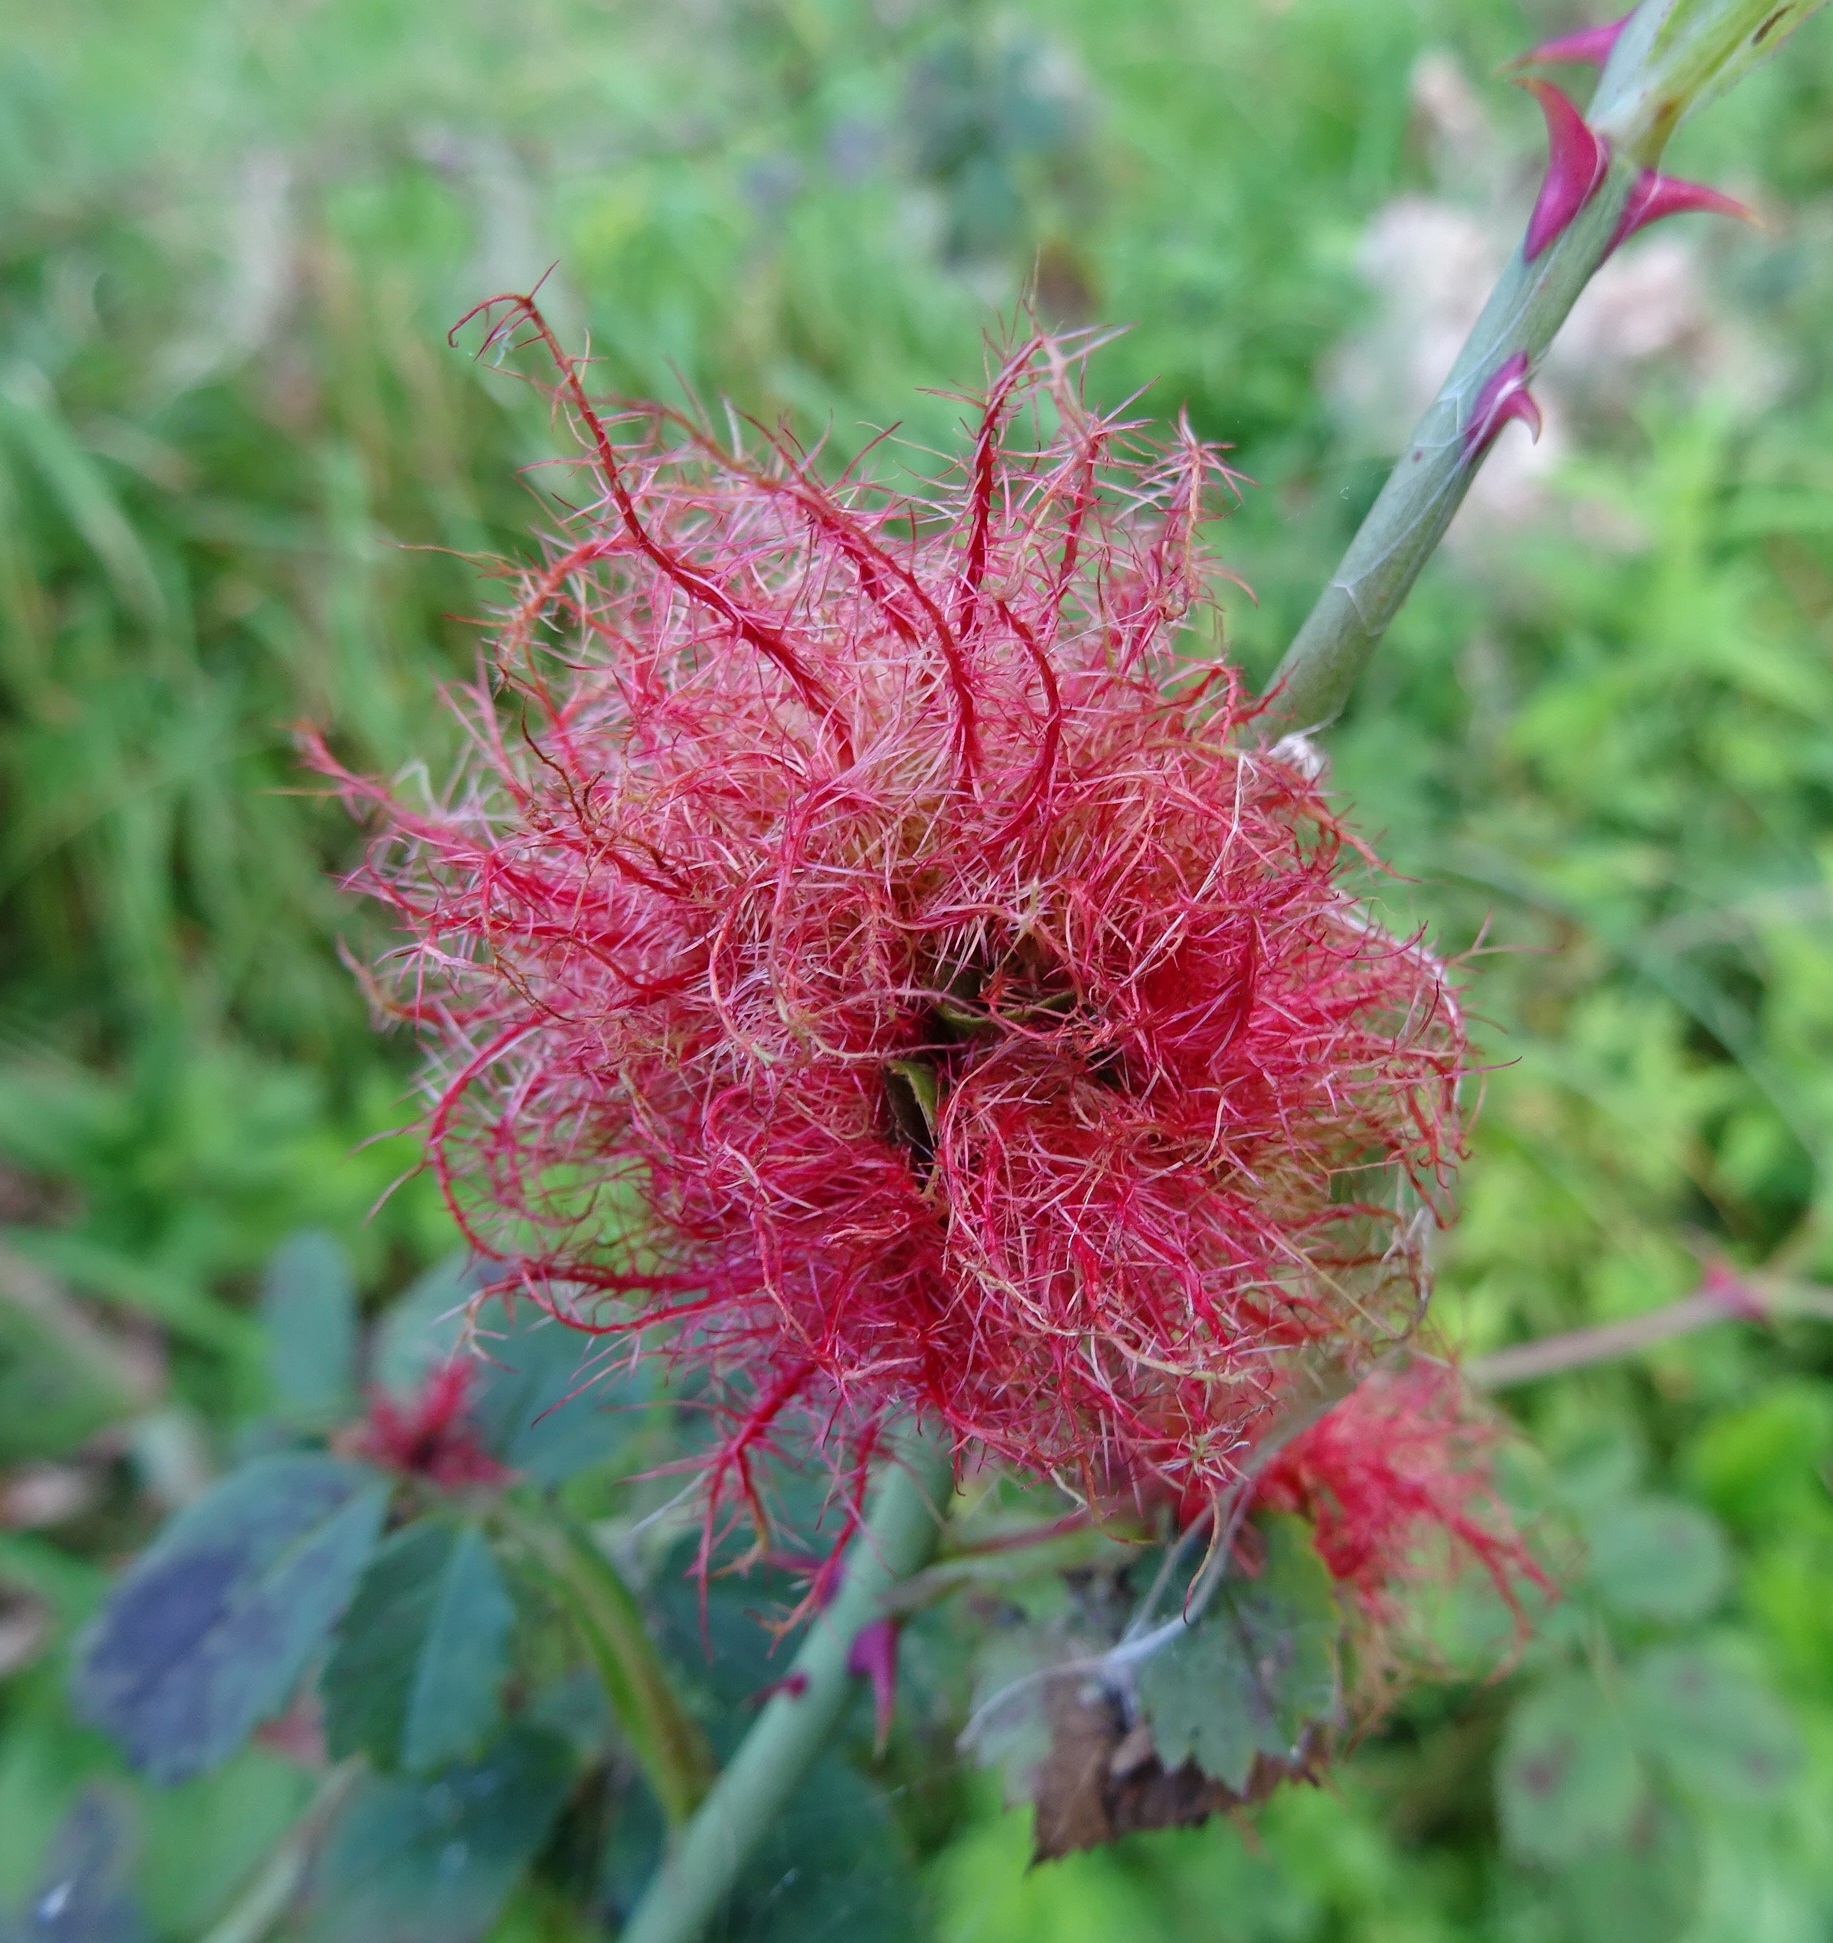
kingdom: Animalia
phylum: Arthropoda
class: Insecta
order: Hymenoptera
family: Cynipidae
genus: Diplolepis
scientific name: Diplolepis rosae
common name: Bedeguar gall
